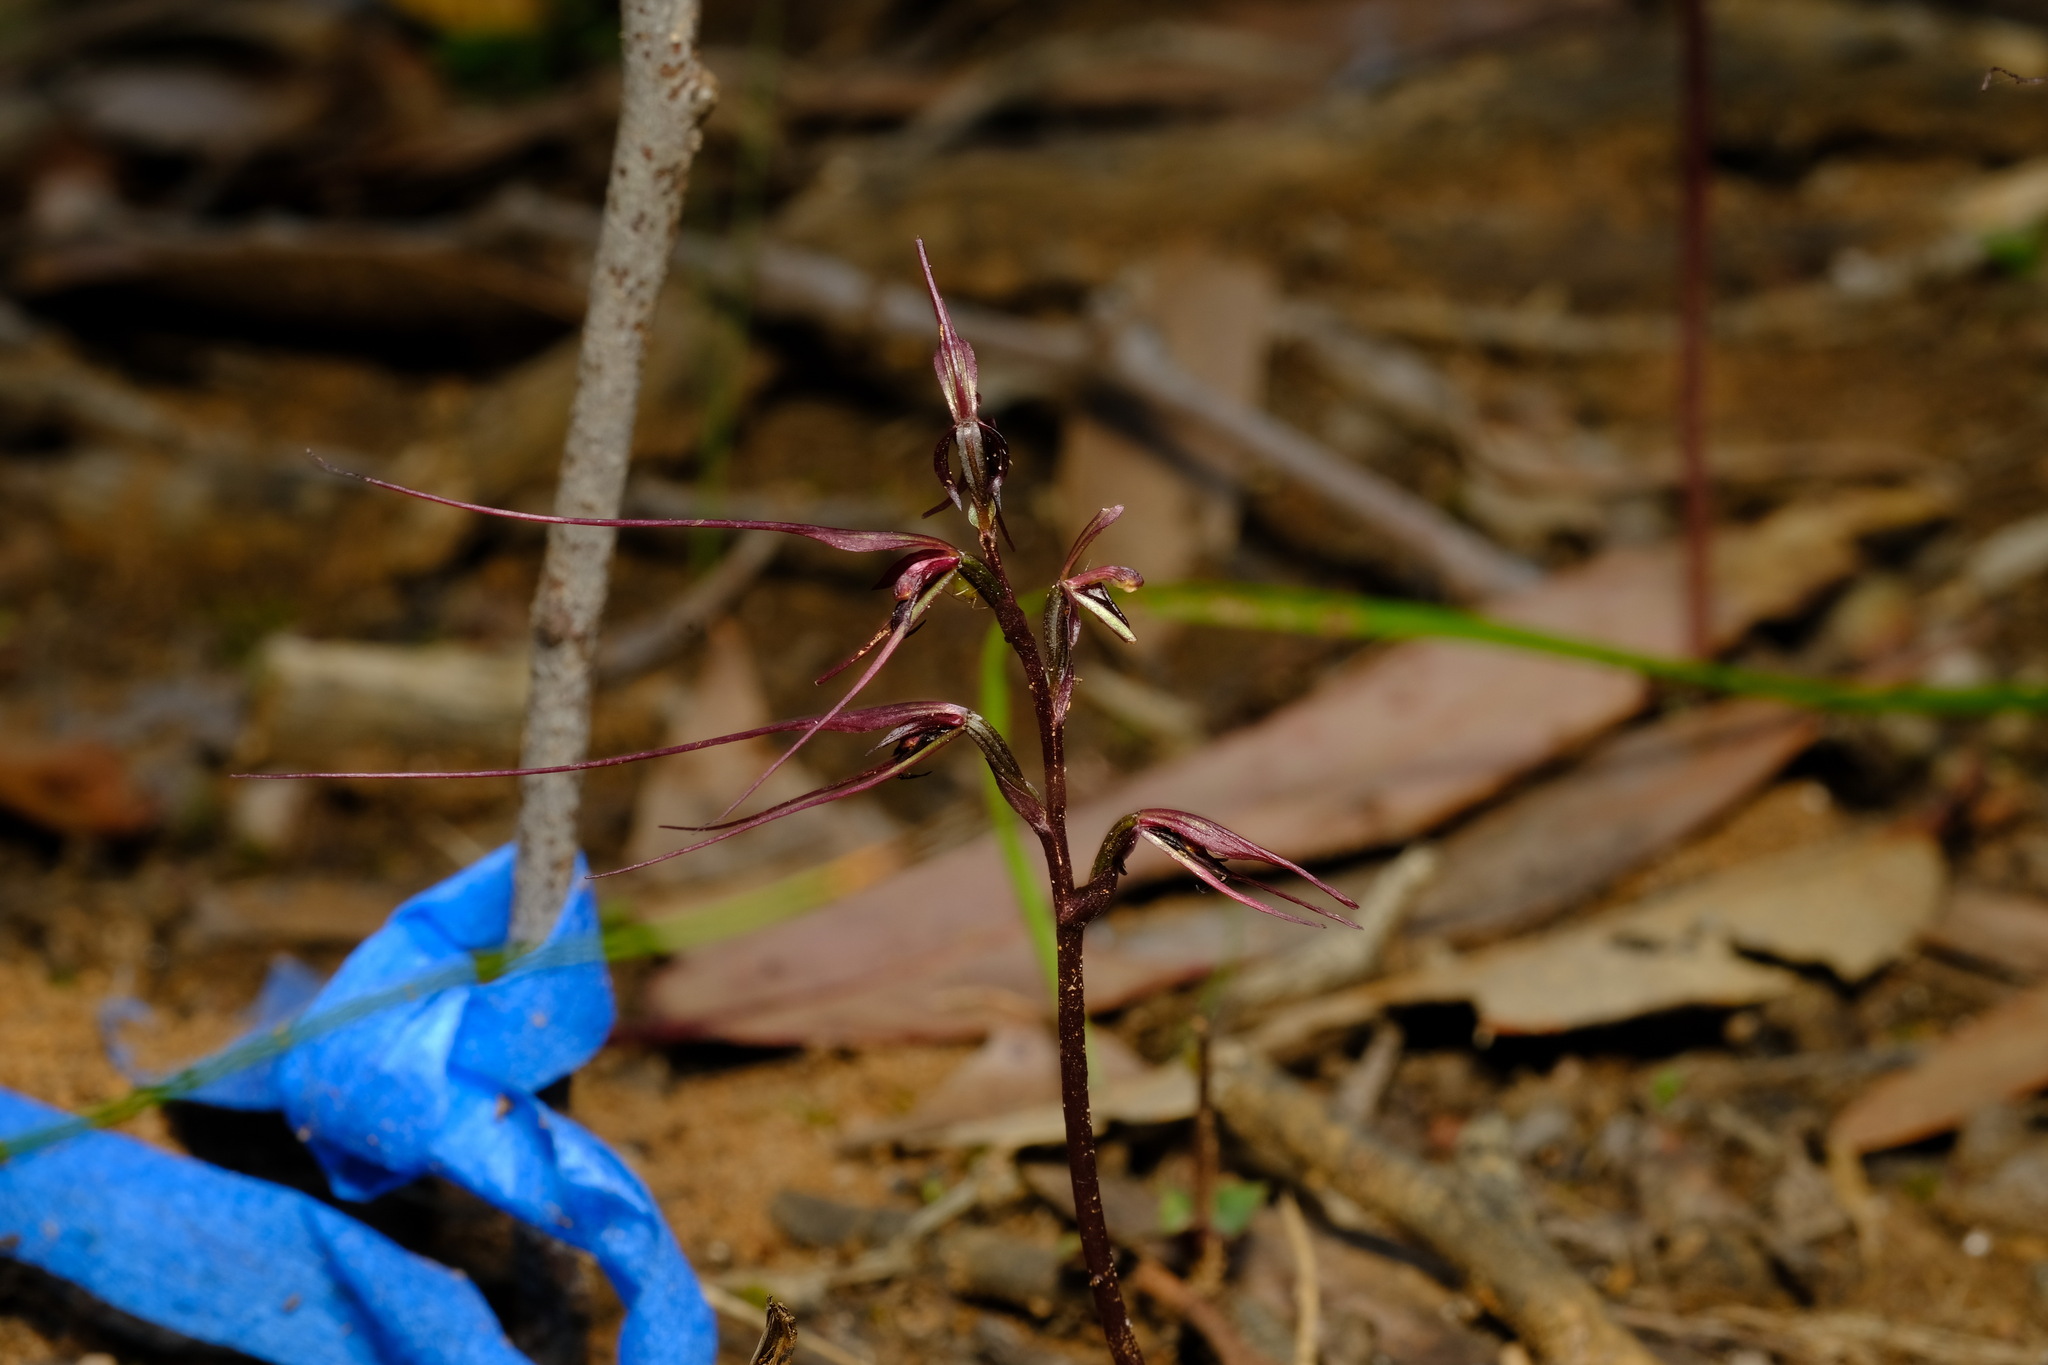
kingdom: Plantae
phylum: Tracheophyta
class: Liliopsida
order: Asparagales
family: Orchidaceae
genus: Acianthus
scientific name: Acianthus caudatus
